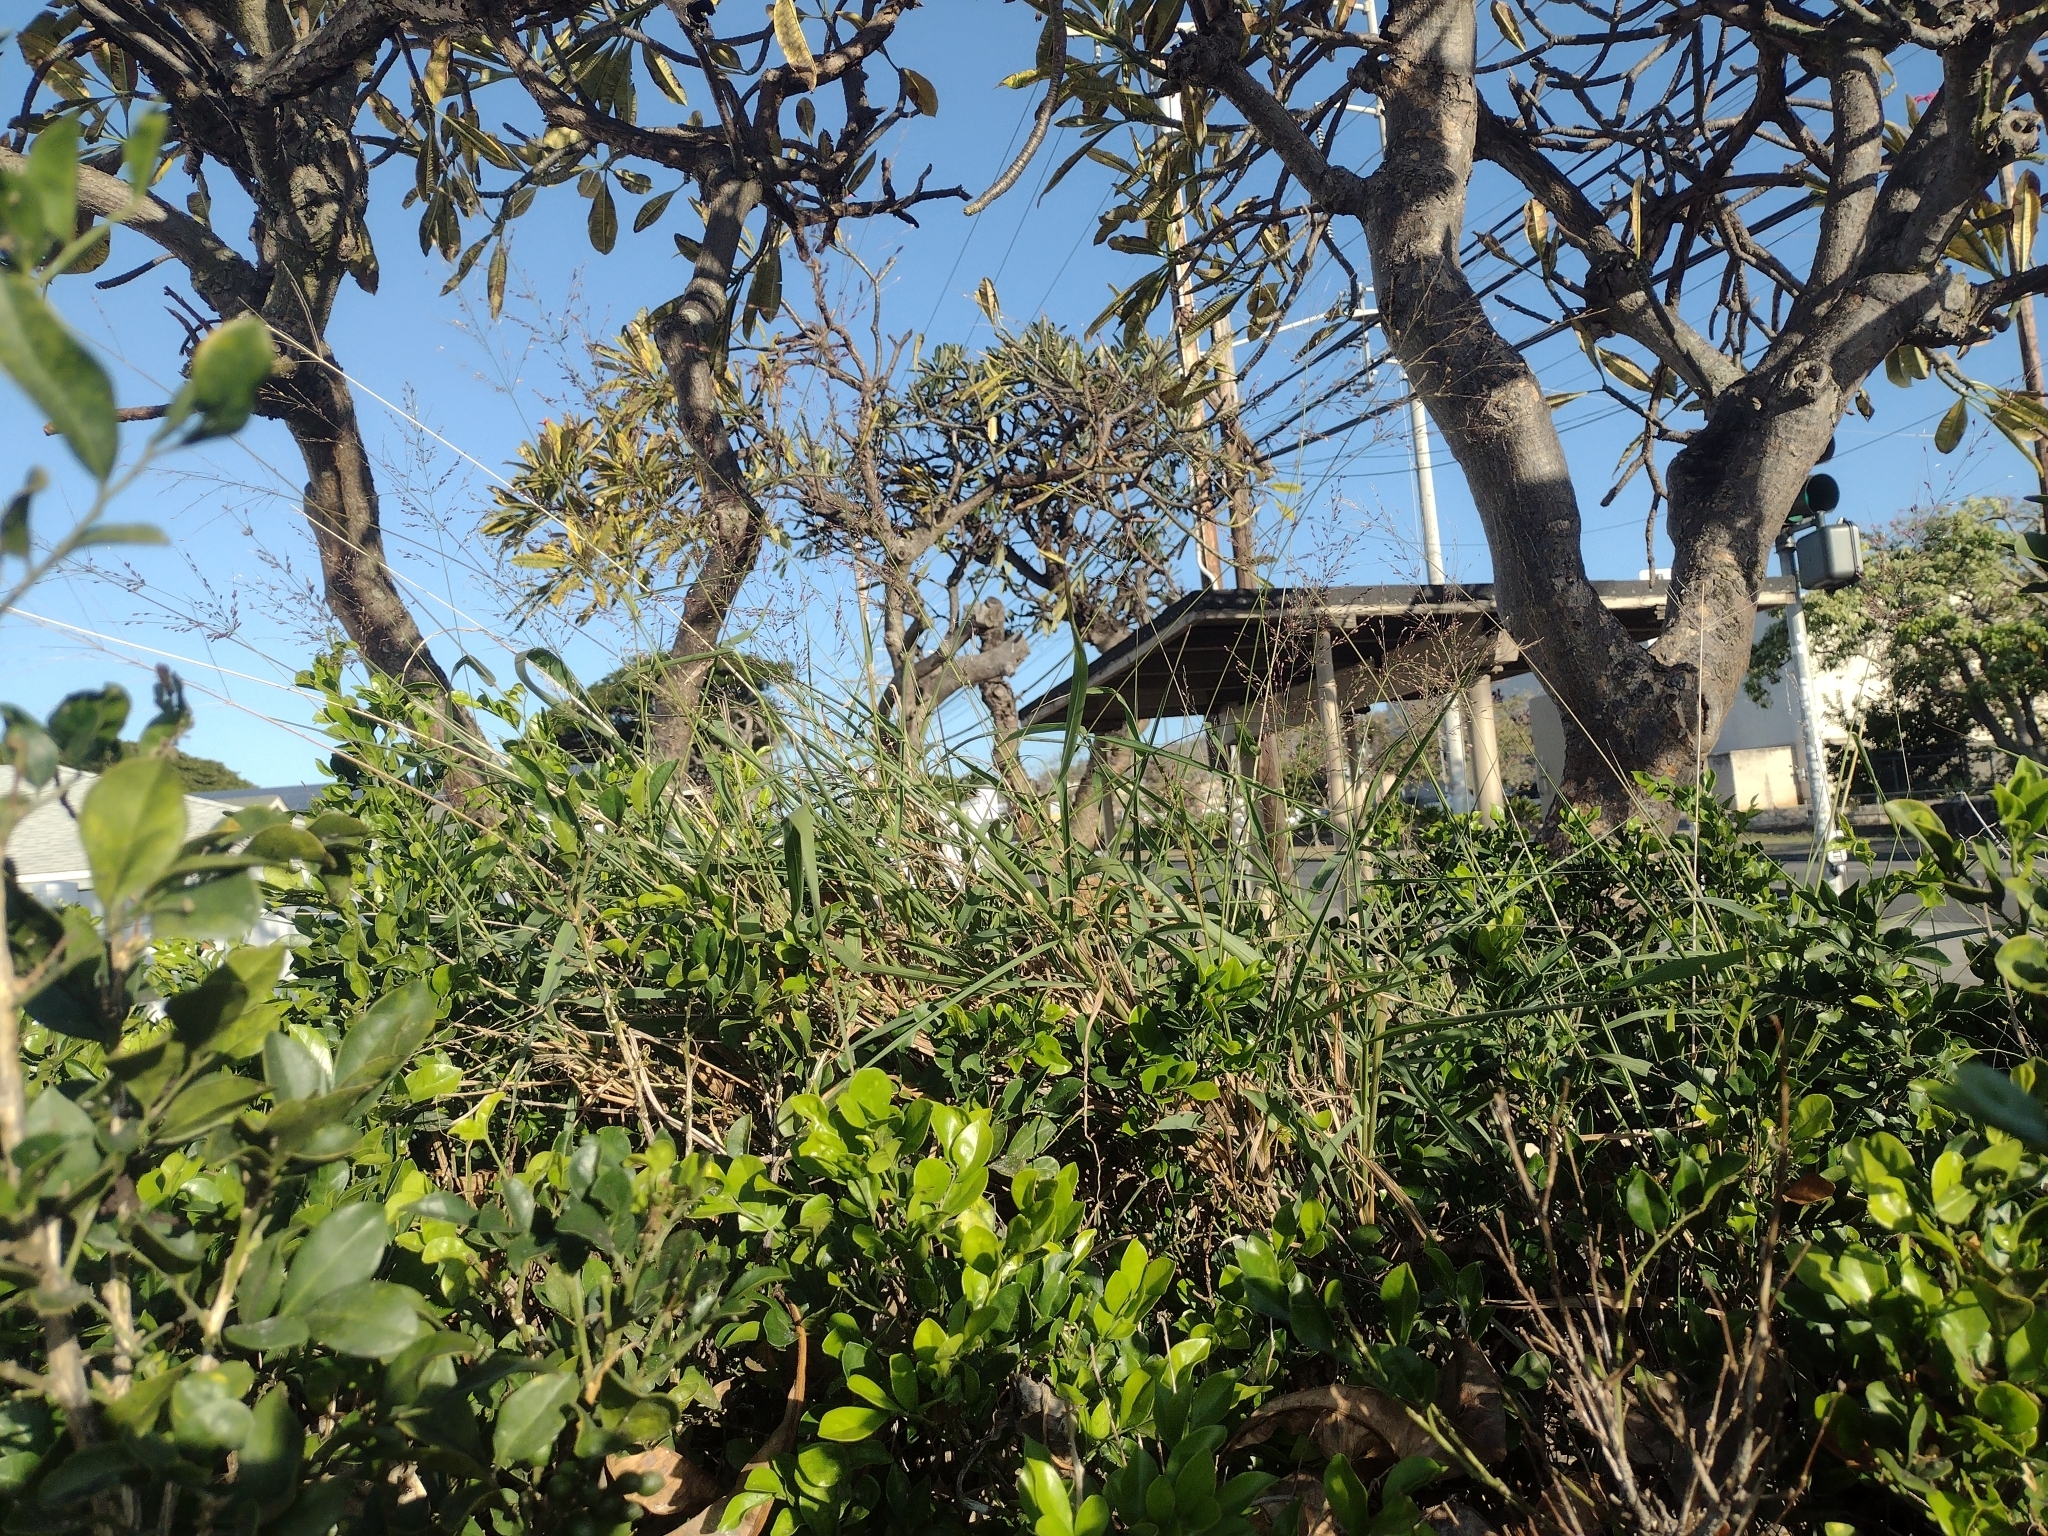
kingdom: Plantae
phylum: Tracheophyta
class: Liliopsida
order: Poales
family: Poaceae
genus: Megathyrsus
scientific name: Megathyrsus maximus
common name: Guineagrass
